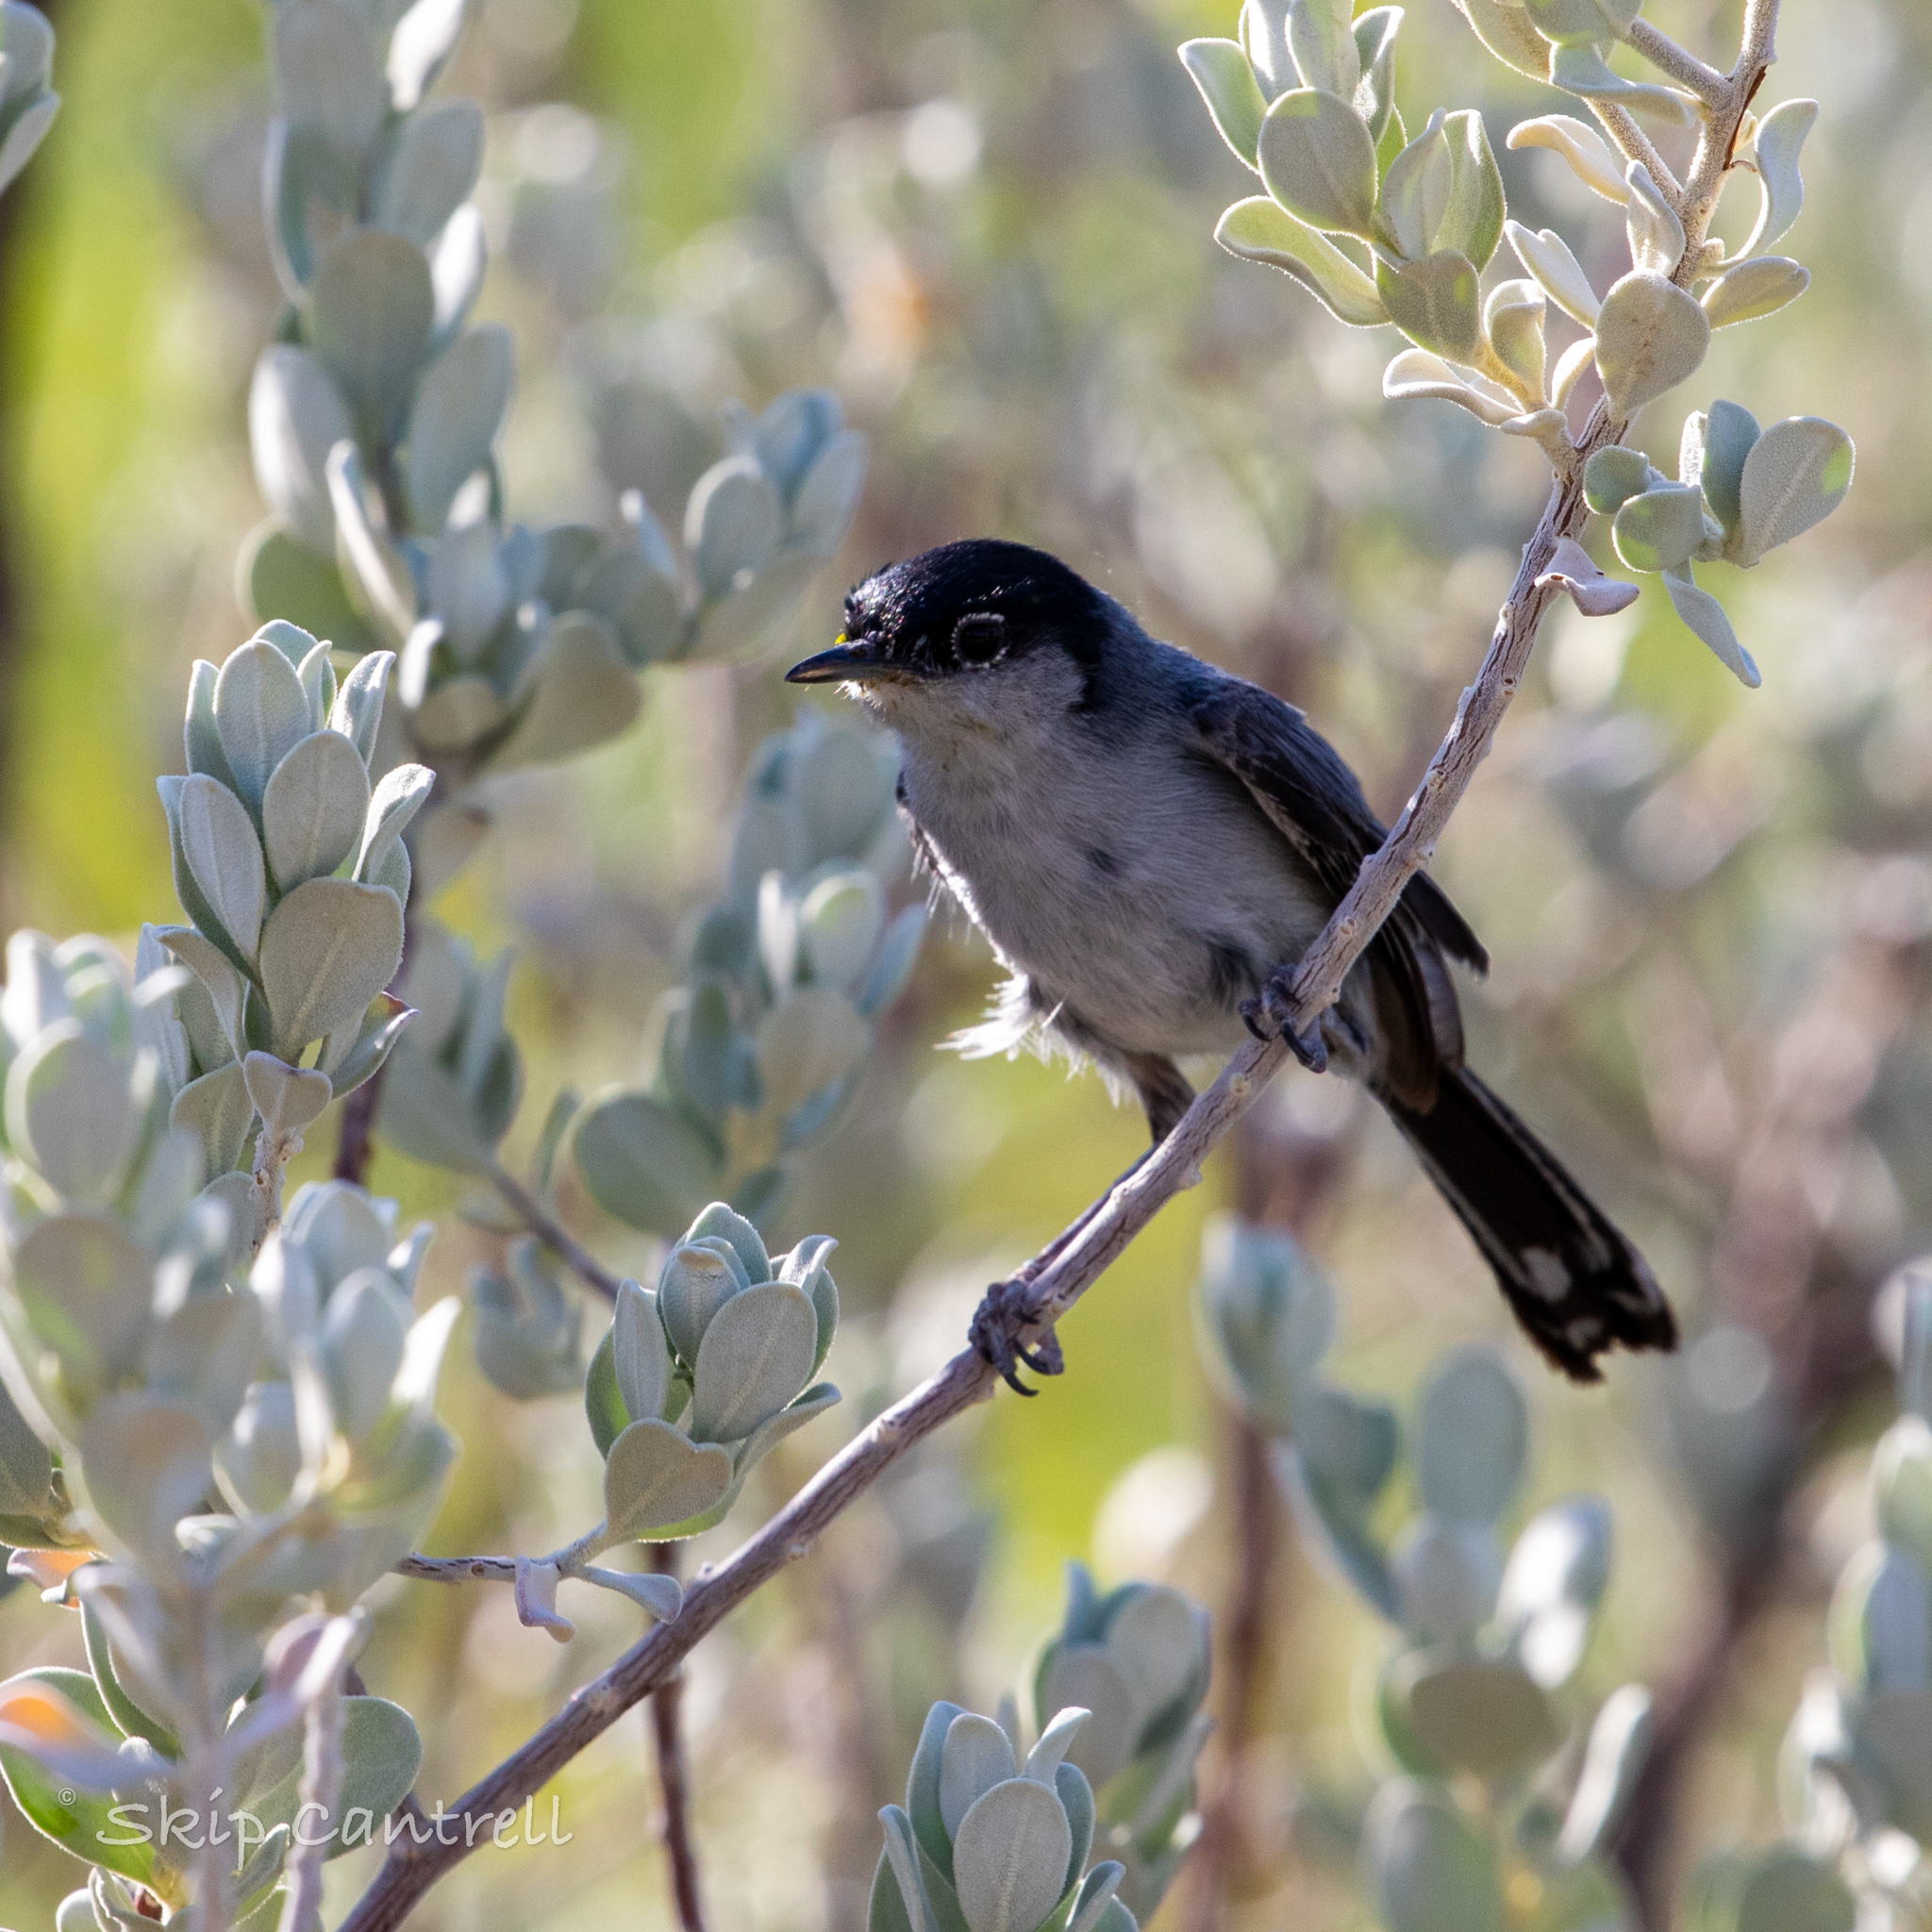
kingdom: Animalia
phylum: Chordata
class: Aves
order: Passeriformes
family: Polioptilidae
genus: Polioptila
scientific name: Polioptila melanura
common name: Black-tailed gnatcatcher
